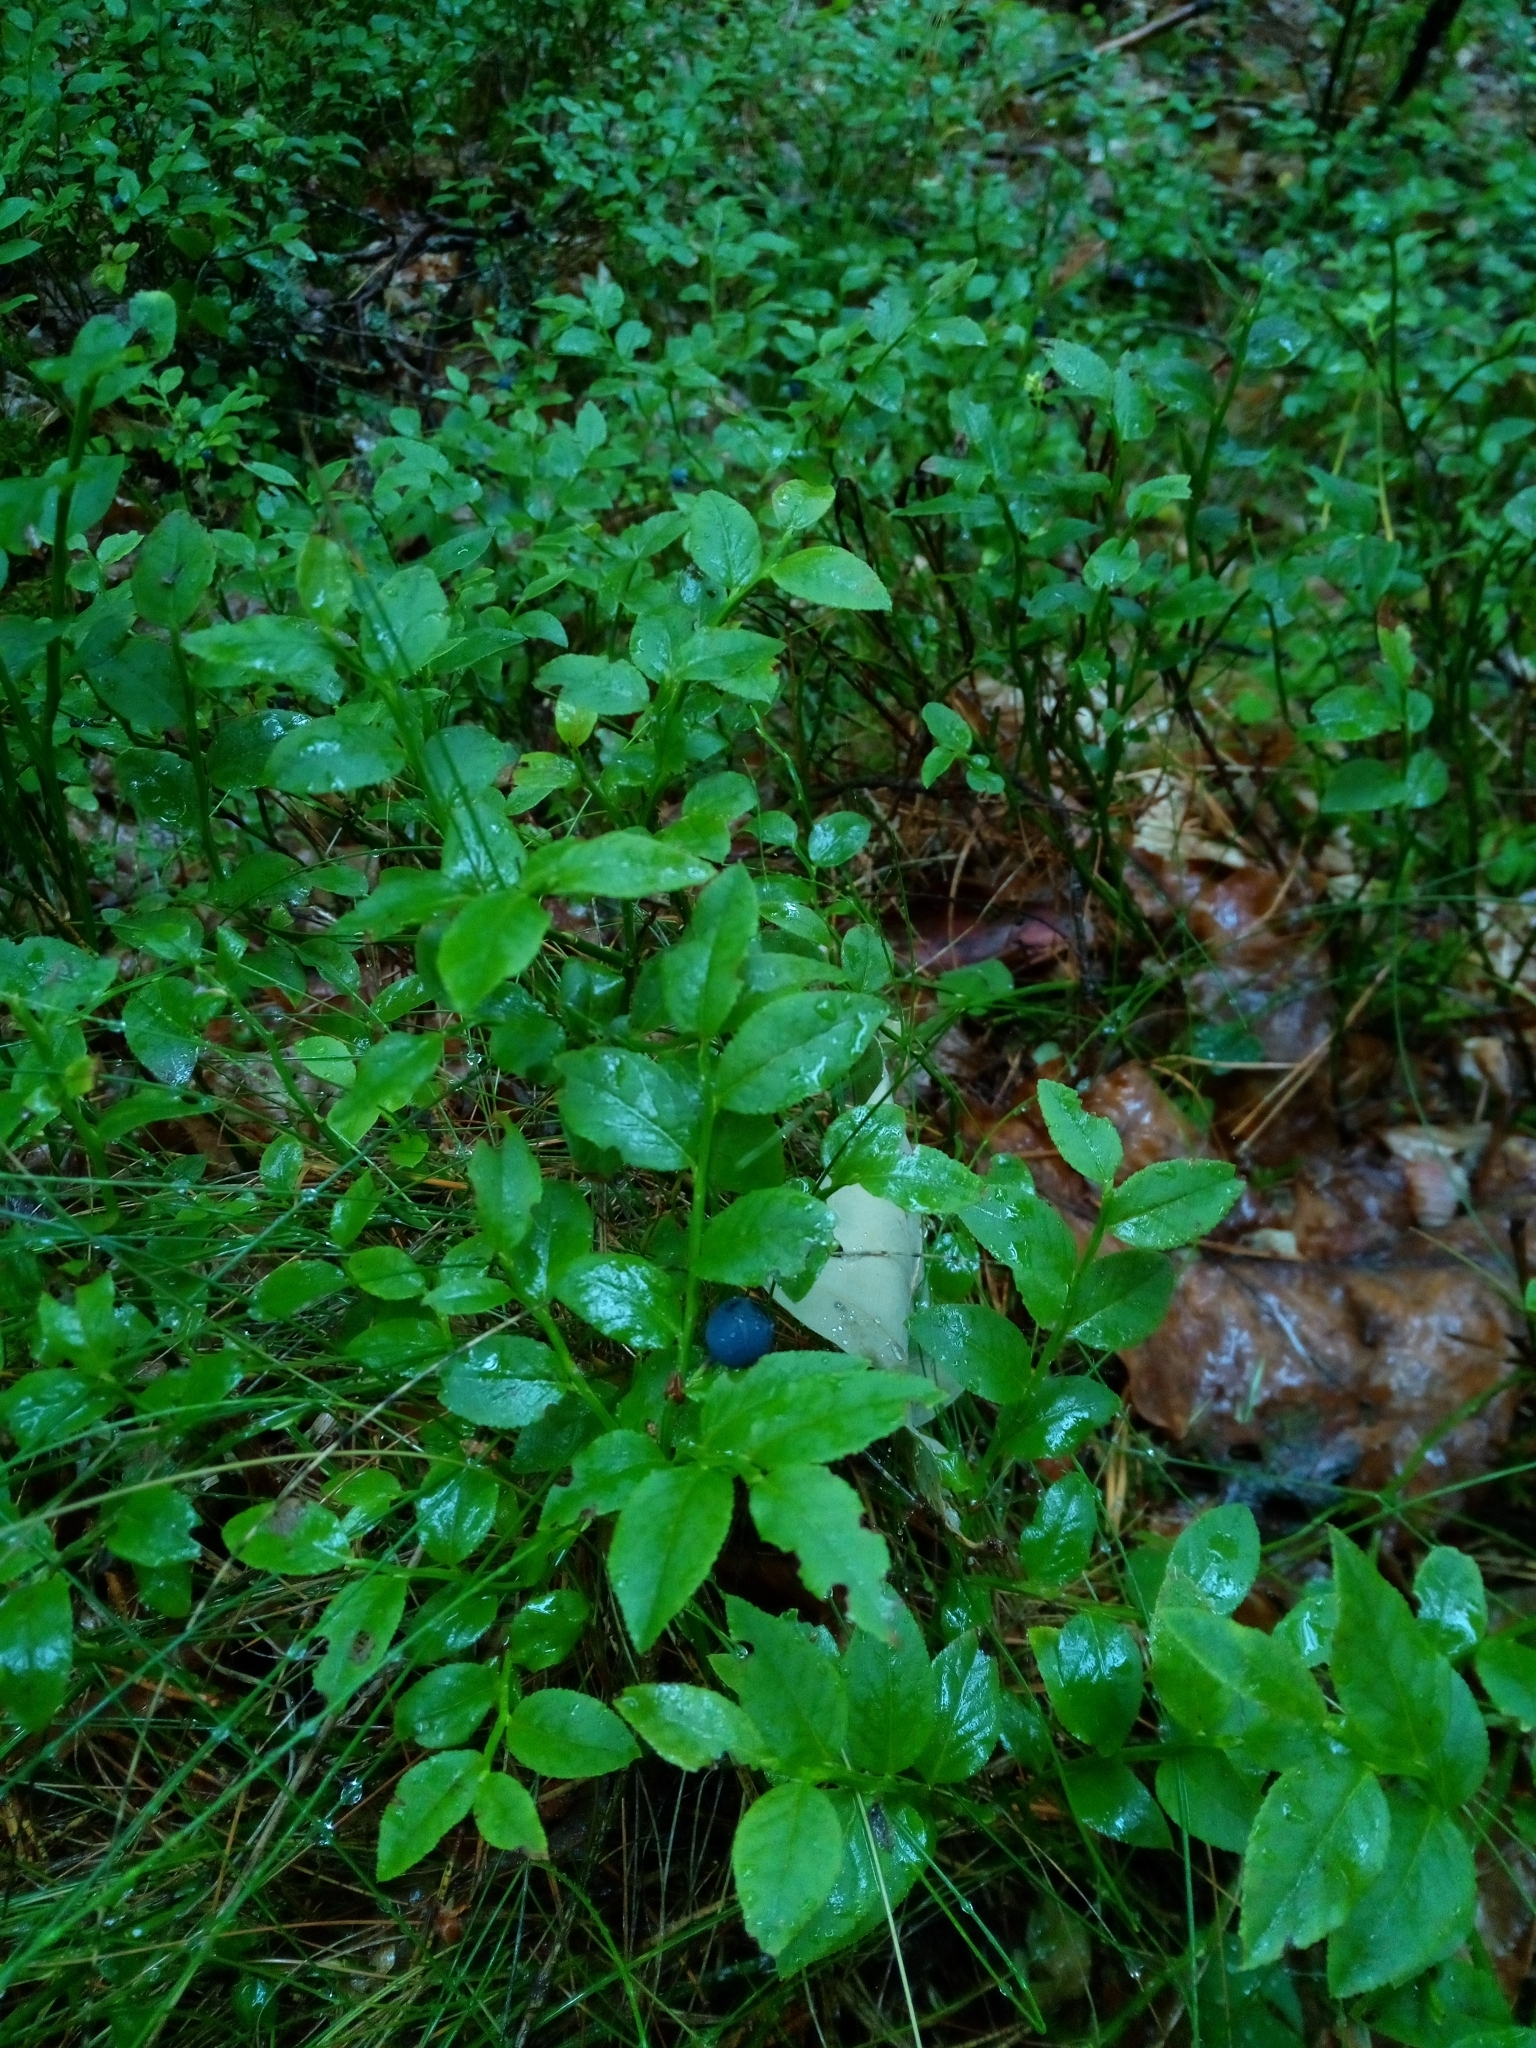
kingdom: Plantae
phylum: Tracheophyta
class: Magnoliopsida
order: Ericales
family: Ericaceae
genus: Vaccinium
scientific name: Vaccinium myrtillus
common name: Bilberry
